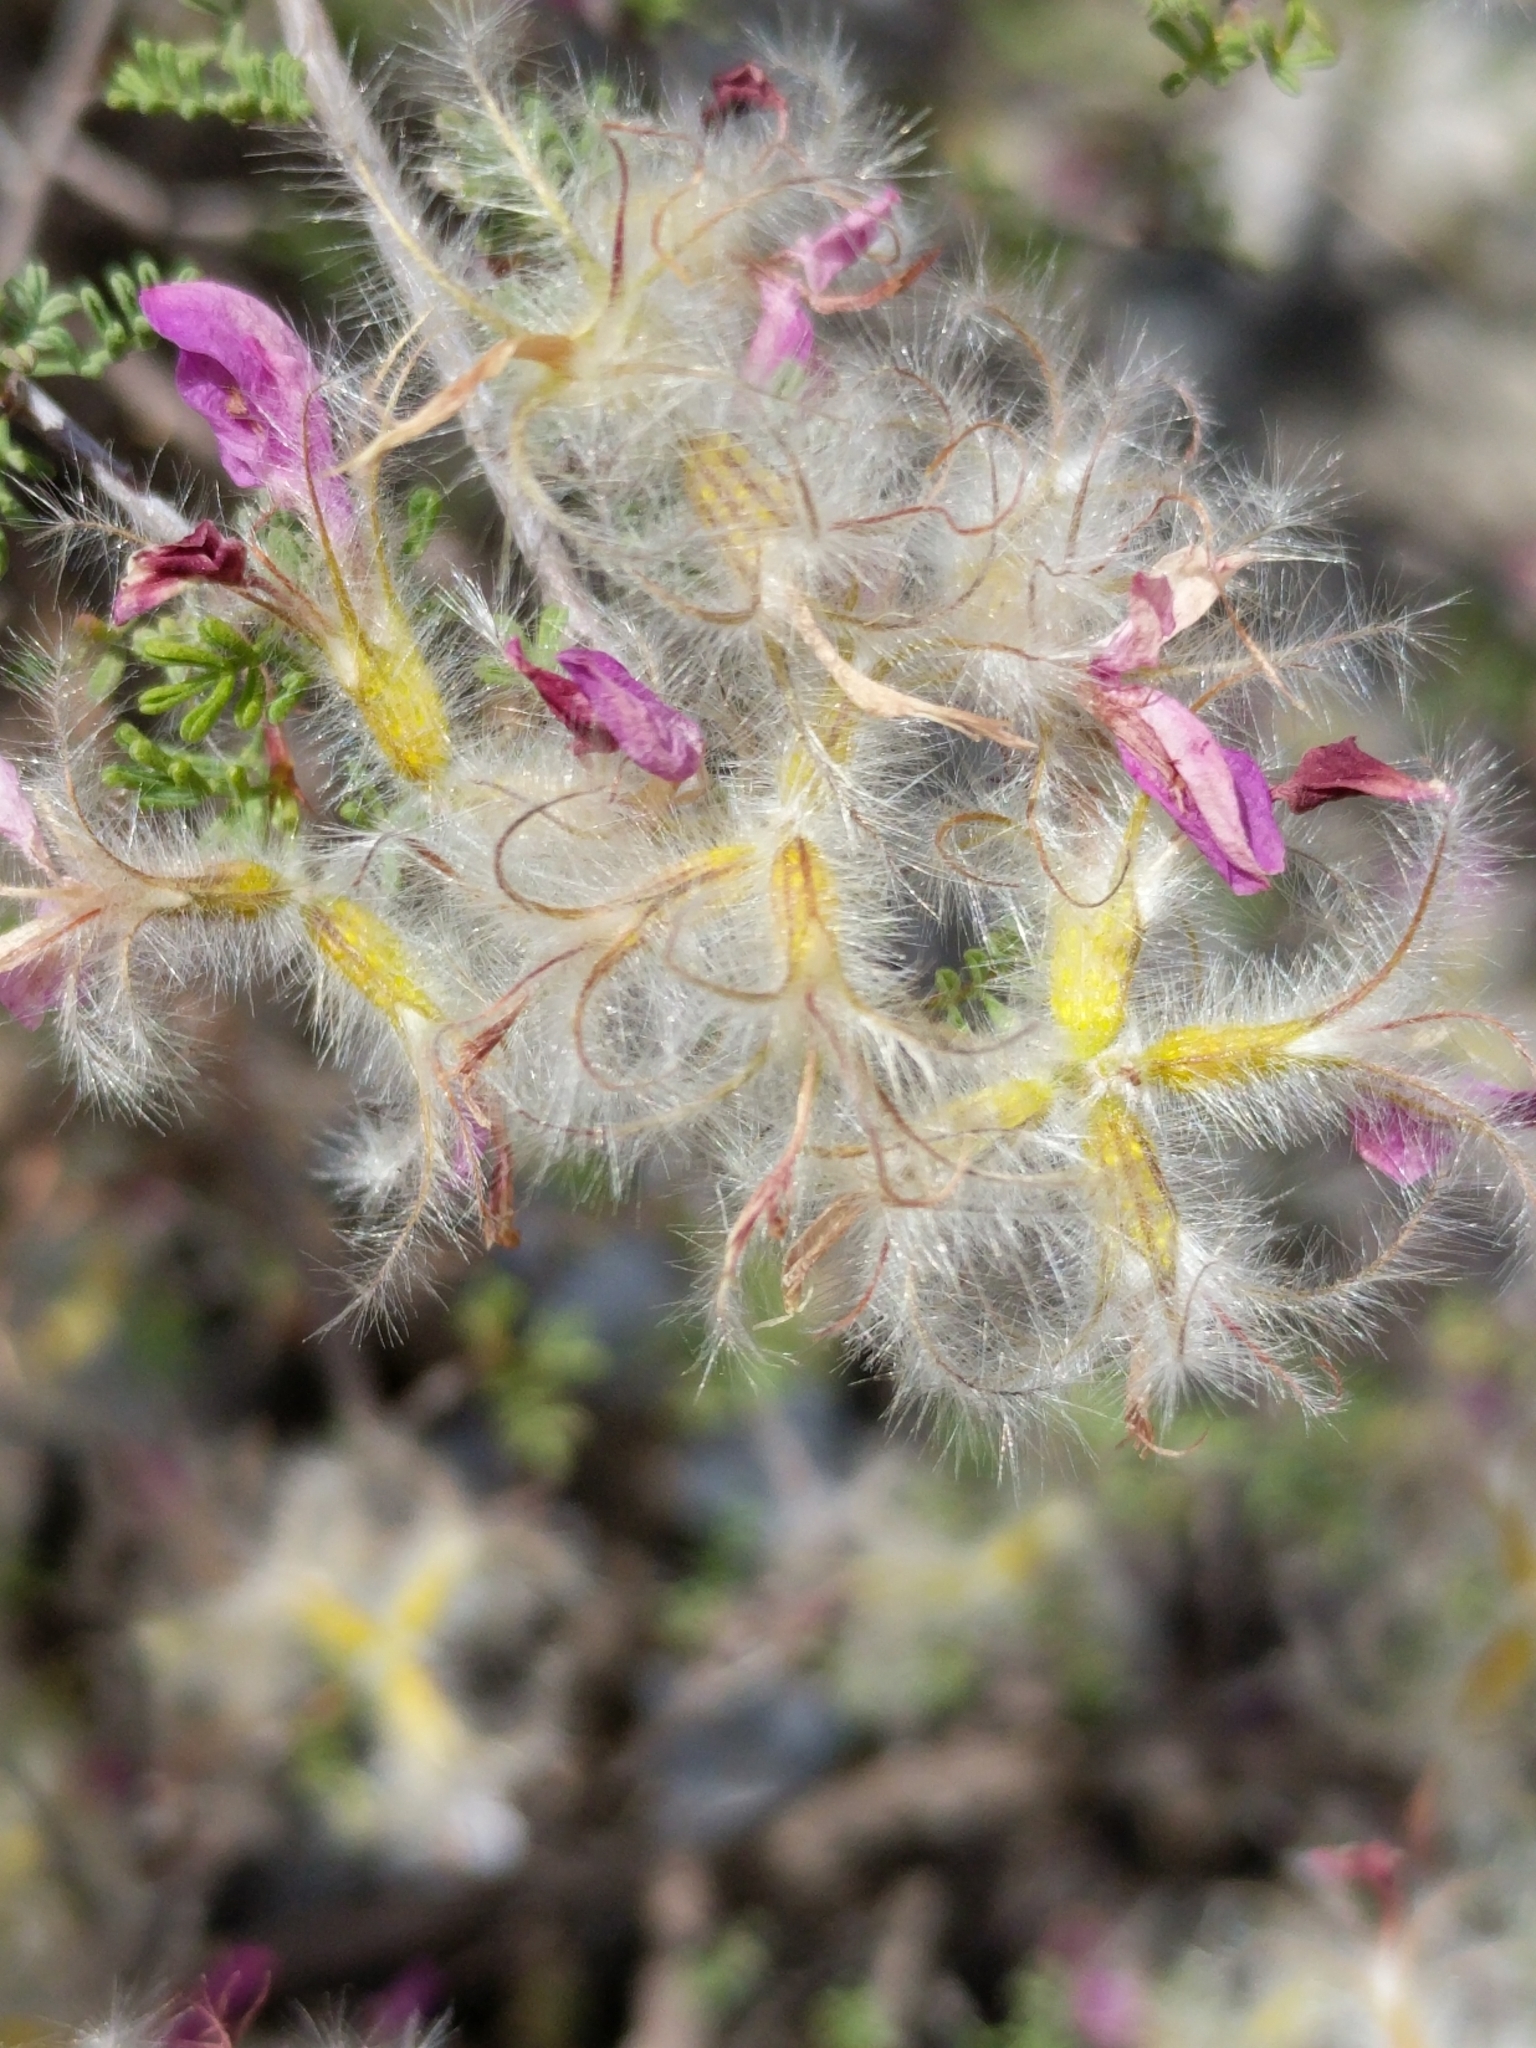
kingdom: Plantae
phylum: Tracheophyta
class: Magnoliopsida
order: Fabales
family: Fabaceae
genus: Dalea
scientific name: Dalea formosa
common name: Feather-plume dalea
